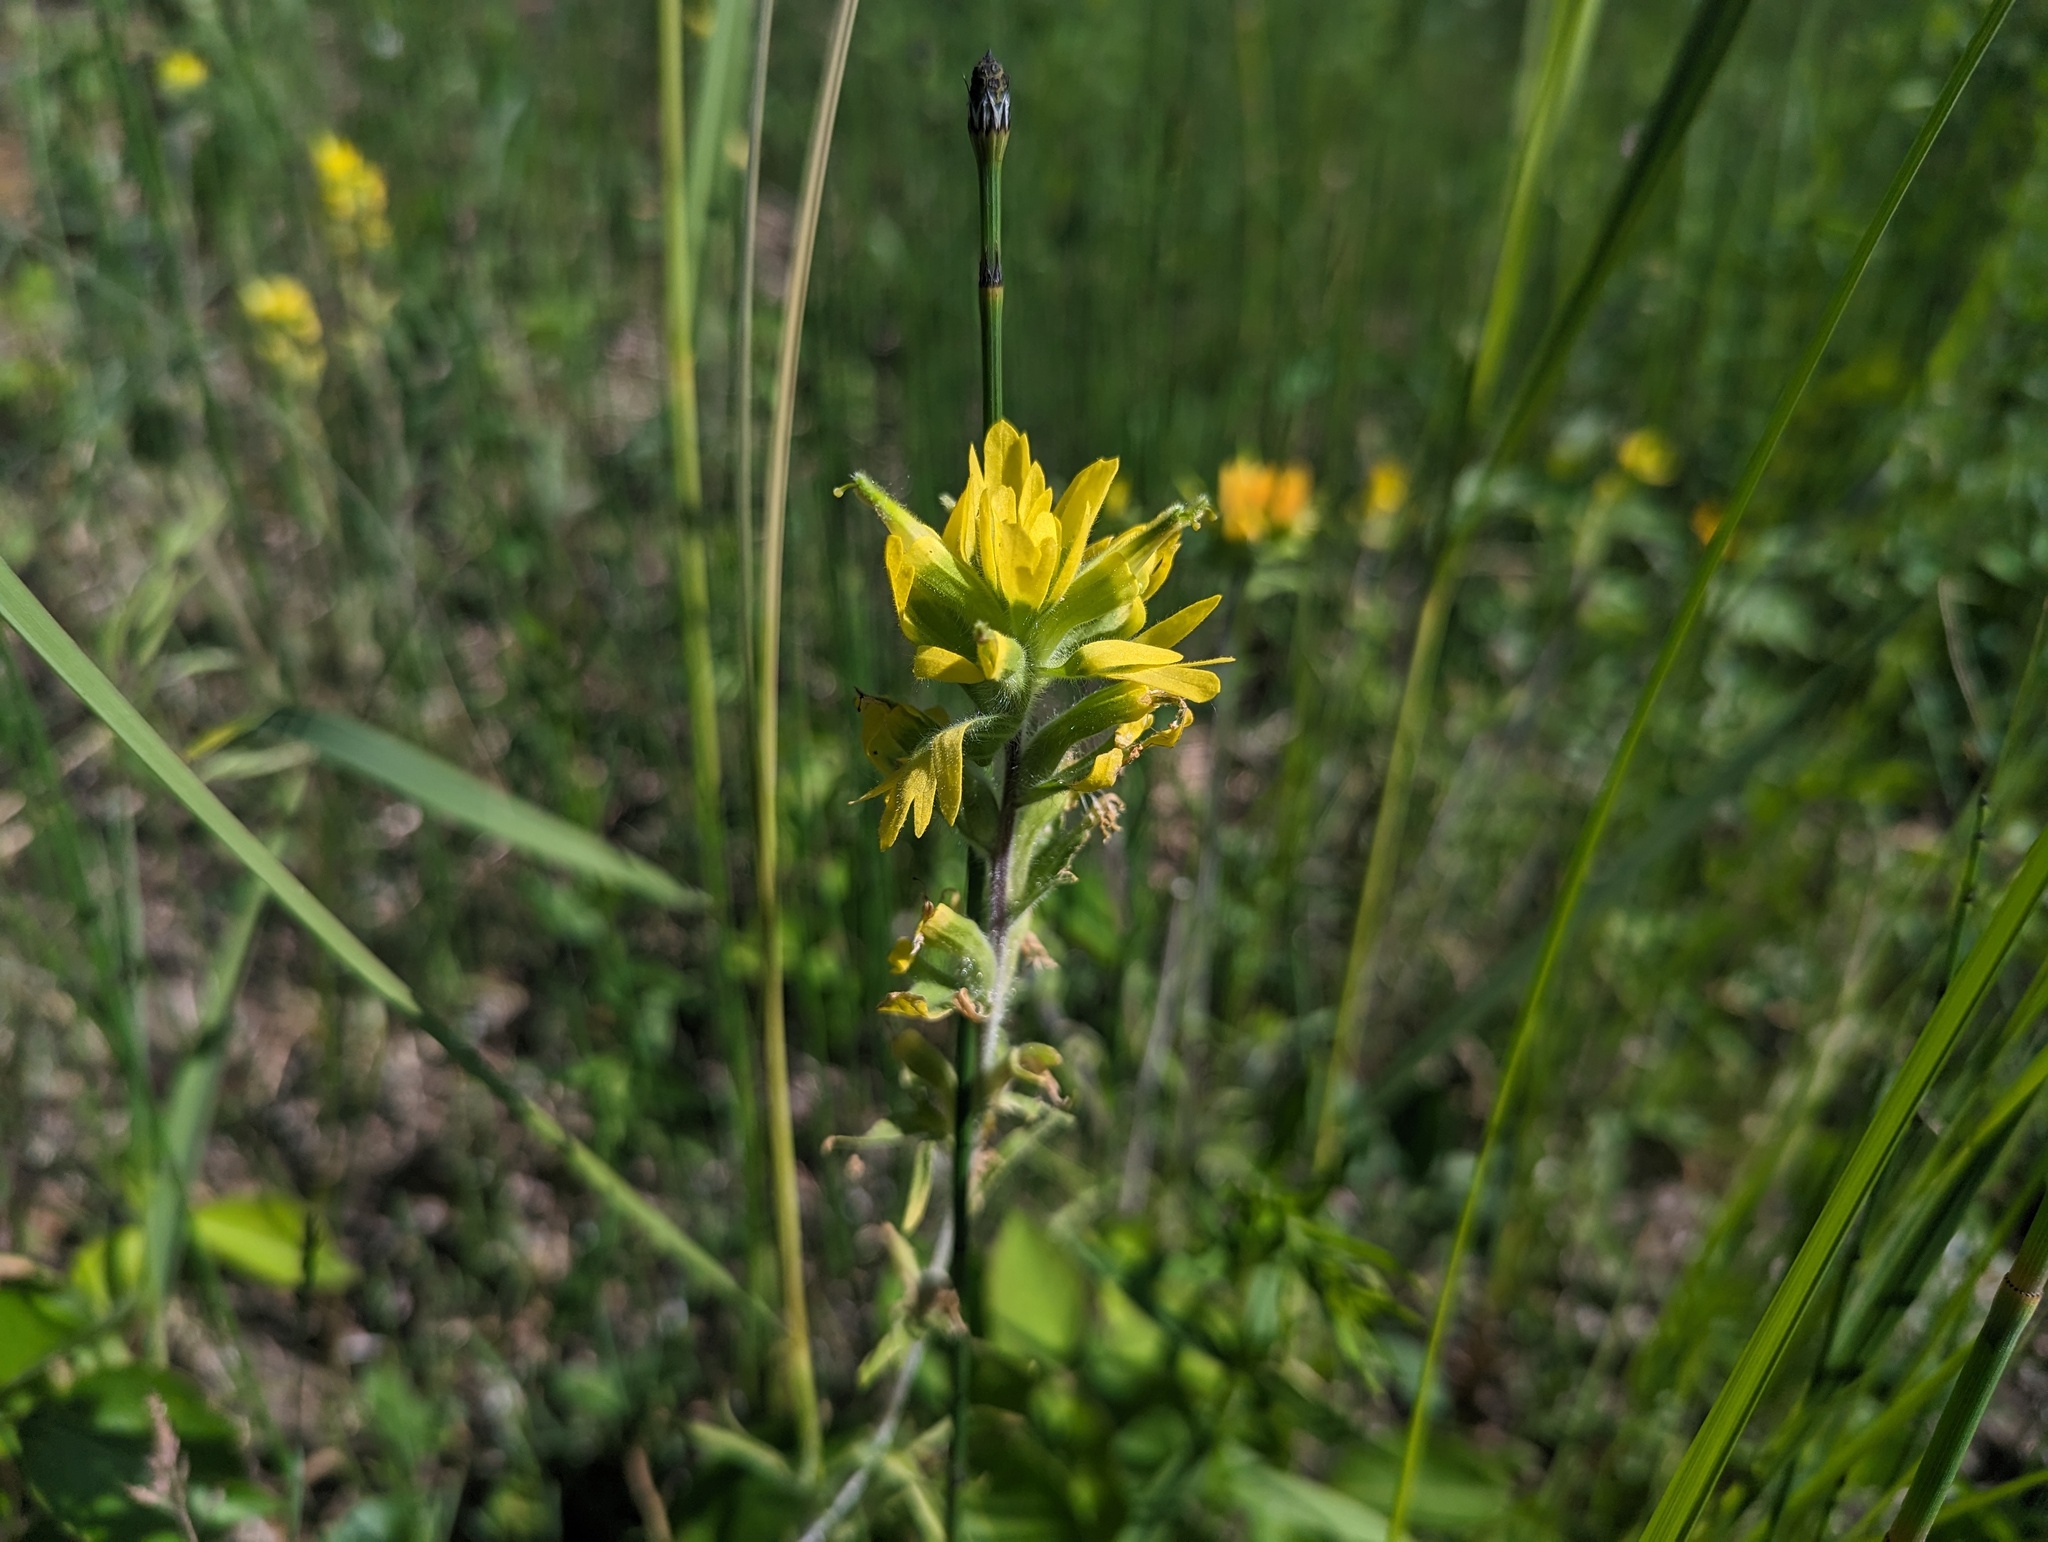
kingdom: Plantae
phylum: Tracheophyta
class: Magnoliopsida
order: Lamiales
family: Orobanchaceae
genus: Castilleja
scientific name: Castilleja coccinea
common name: Scarlet paintbrush
